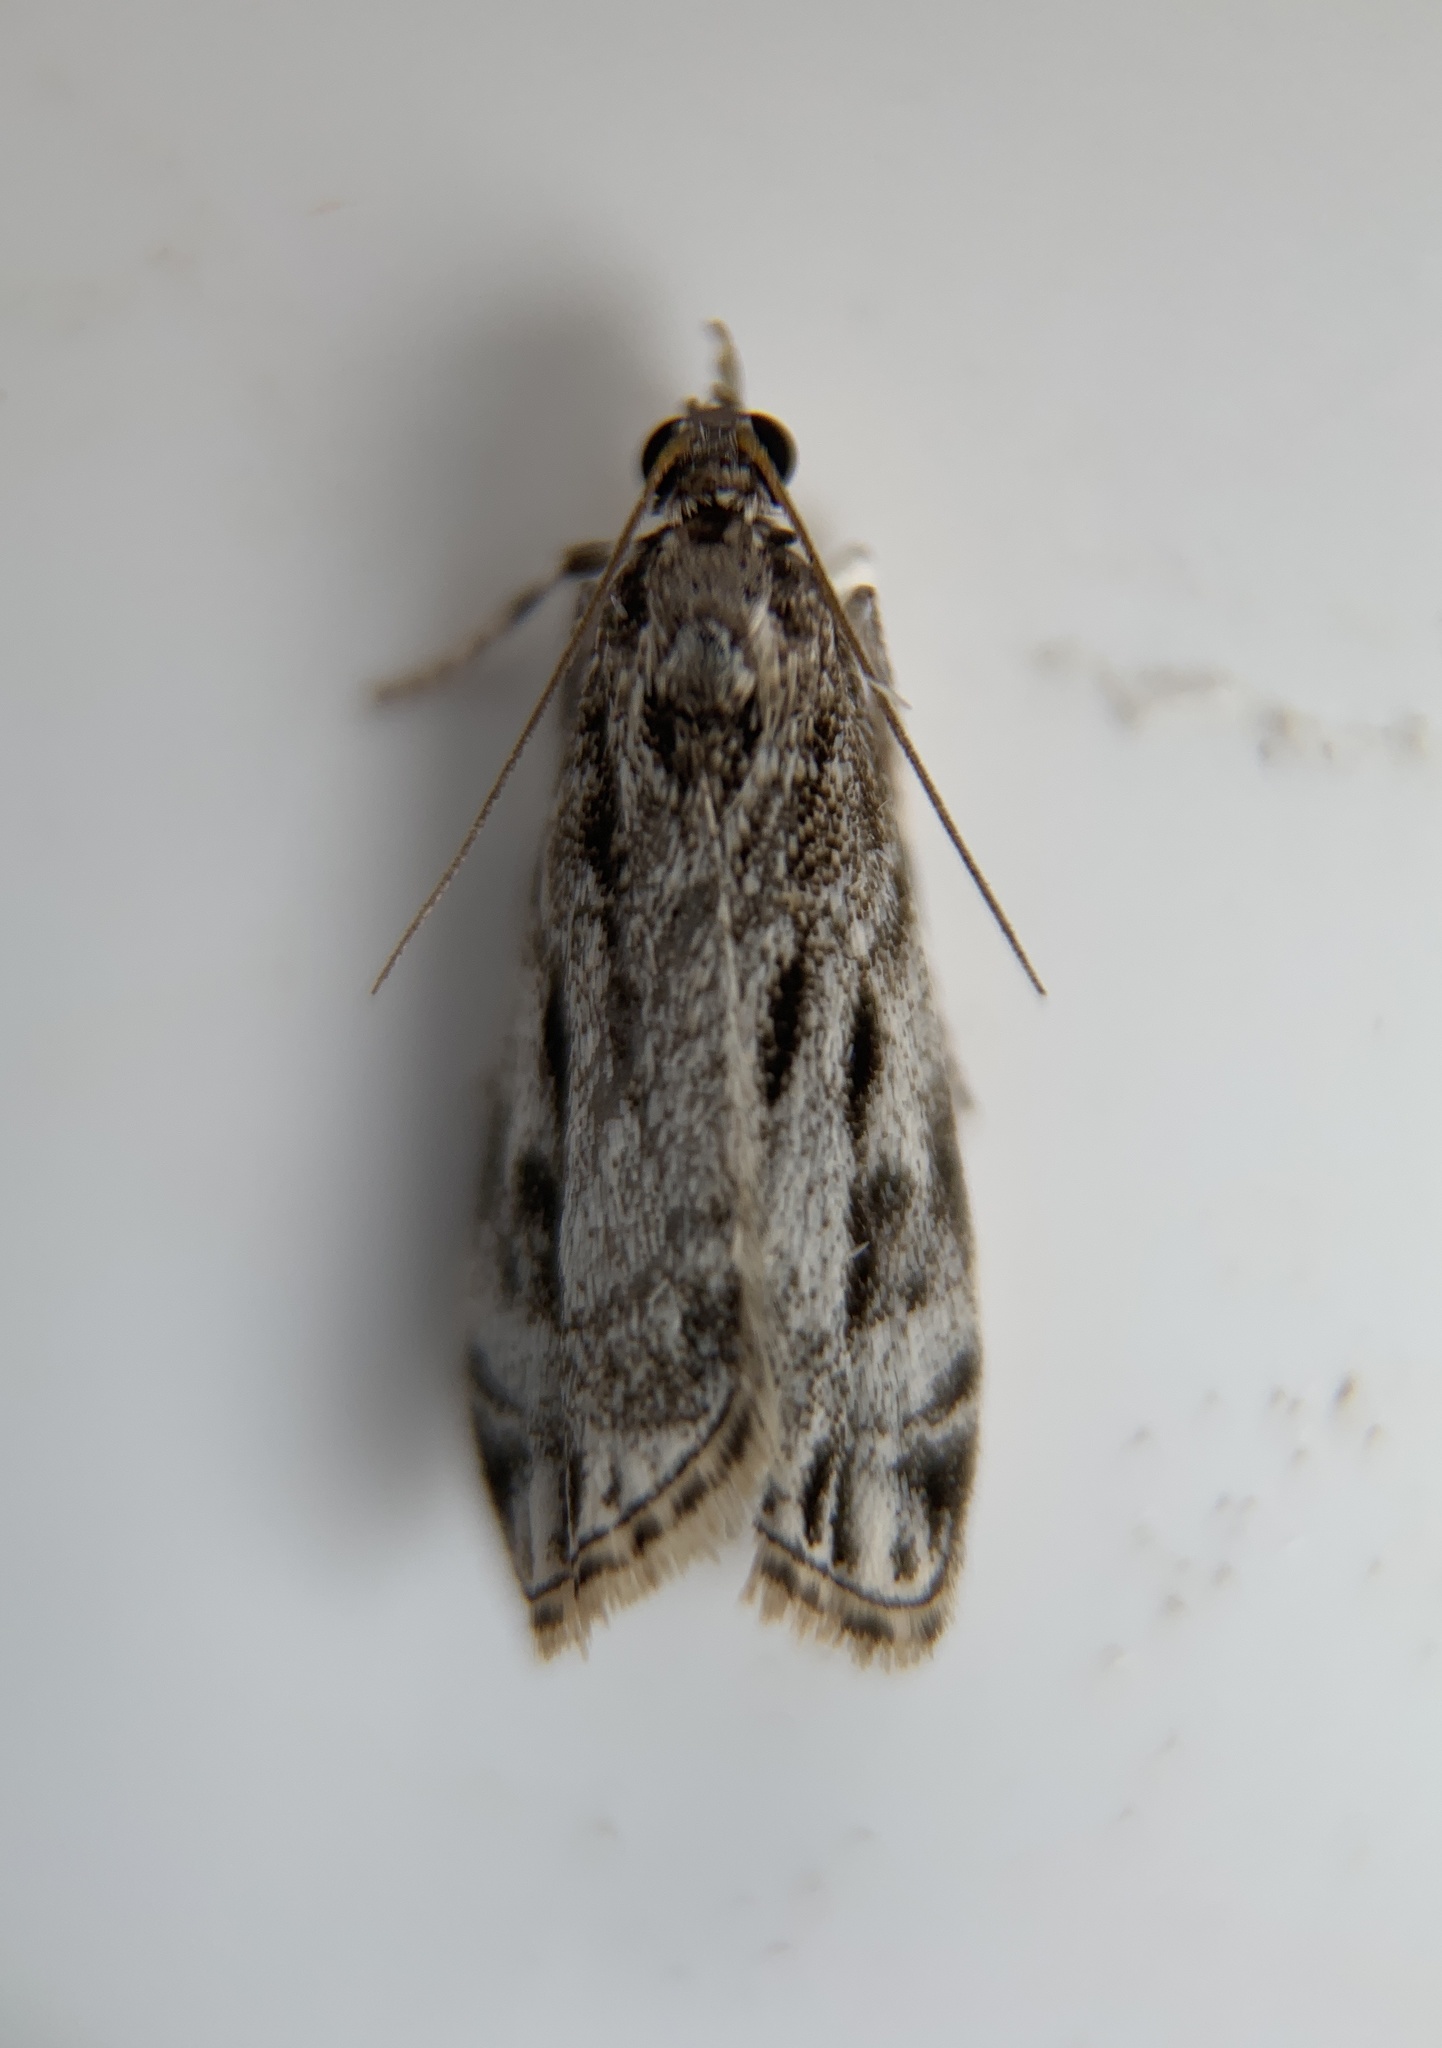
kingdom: Animalia
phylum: Arthropoda
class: Insecta
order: Lepidoptera
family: Crambidae
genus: Eudonia
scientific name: Eudonia strigalis
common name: Striped eudonia moth
